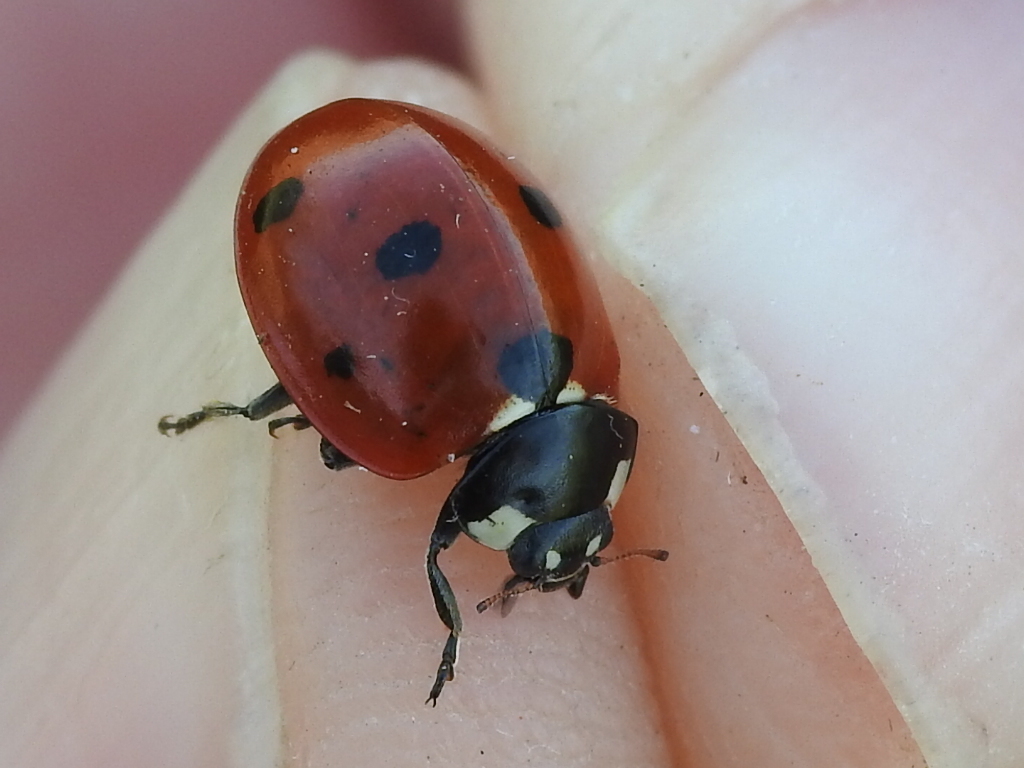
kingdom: Animalia
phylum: Arthropoda
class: Insecta
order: Coleoptera
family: Coccinellidae
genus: Coccinella
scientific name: Coccinella septempunctata
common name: Sevenspotted lady beetle
